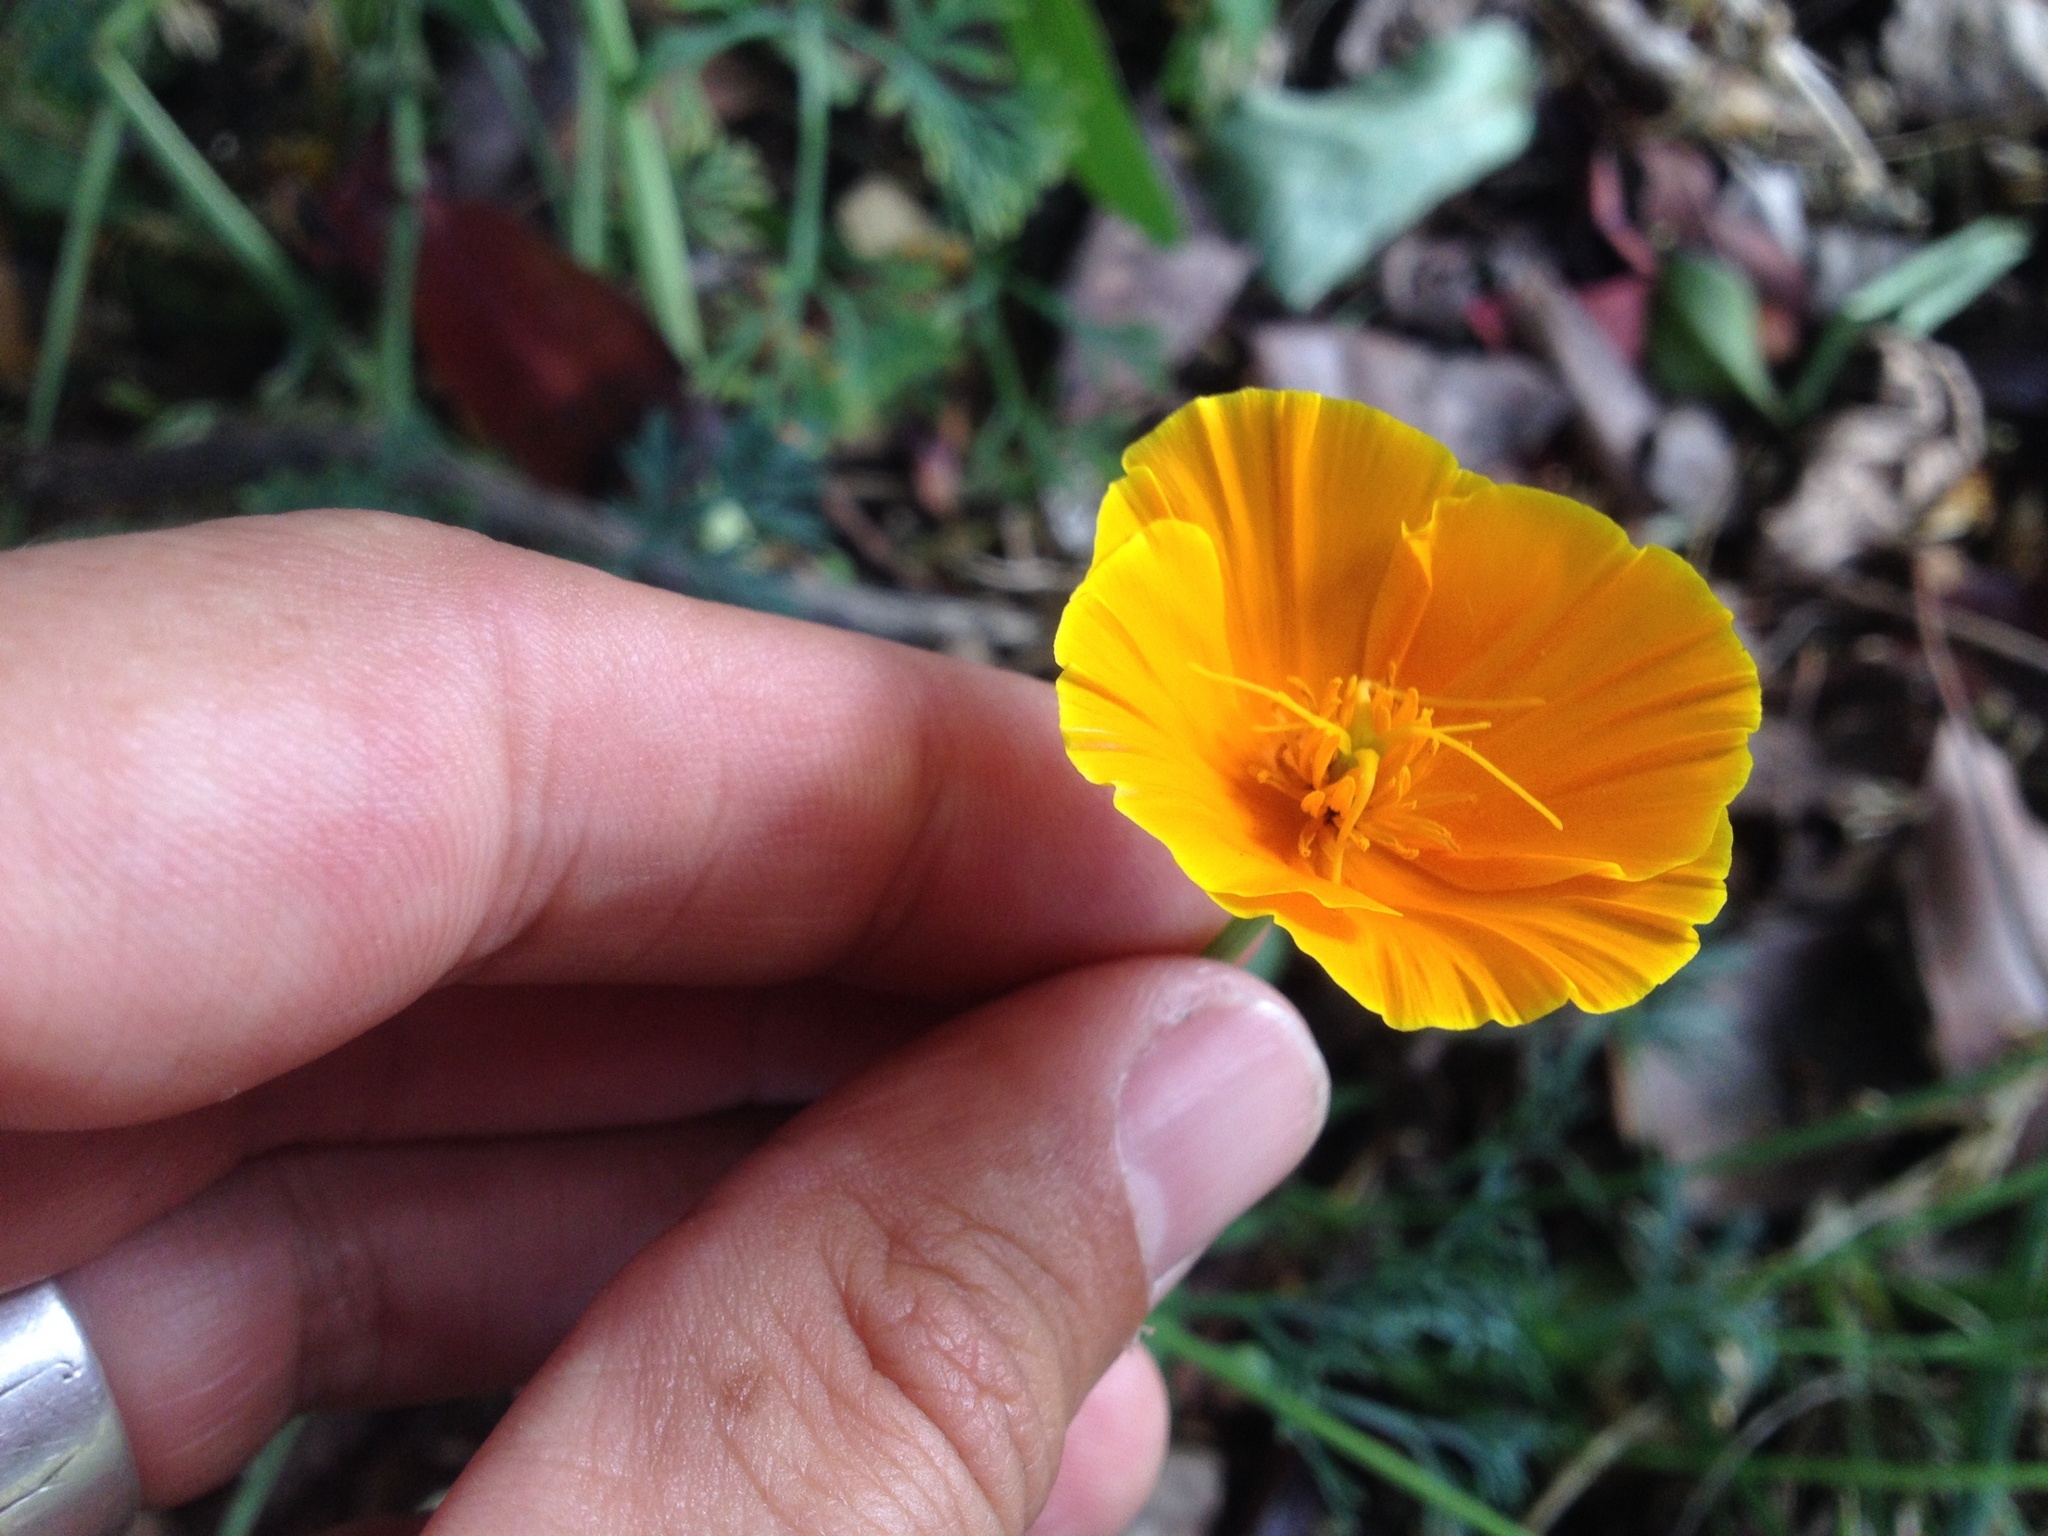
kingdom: Plantae
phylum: Tracheophyta
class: Magnoliopsida
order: Ranunculales
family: Papaveraceae
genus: Eschscholzia
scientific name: Eschscholzia californica
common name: California poppy
